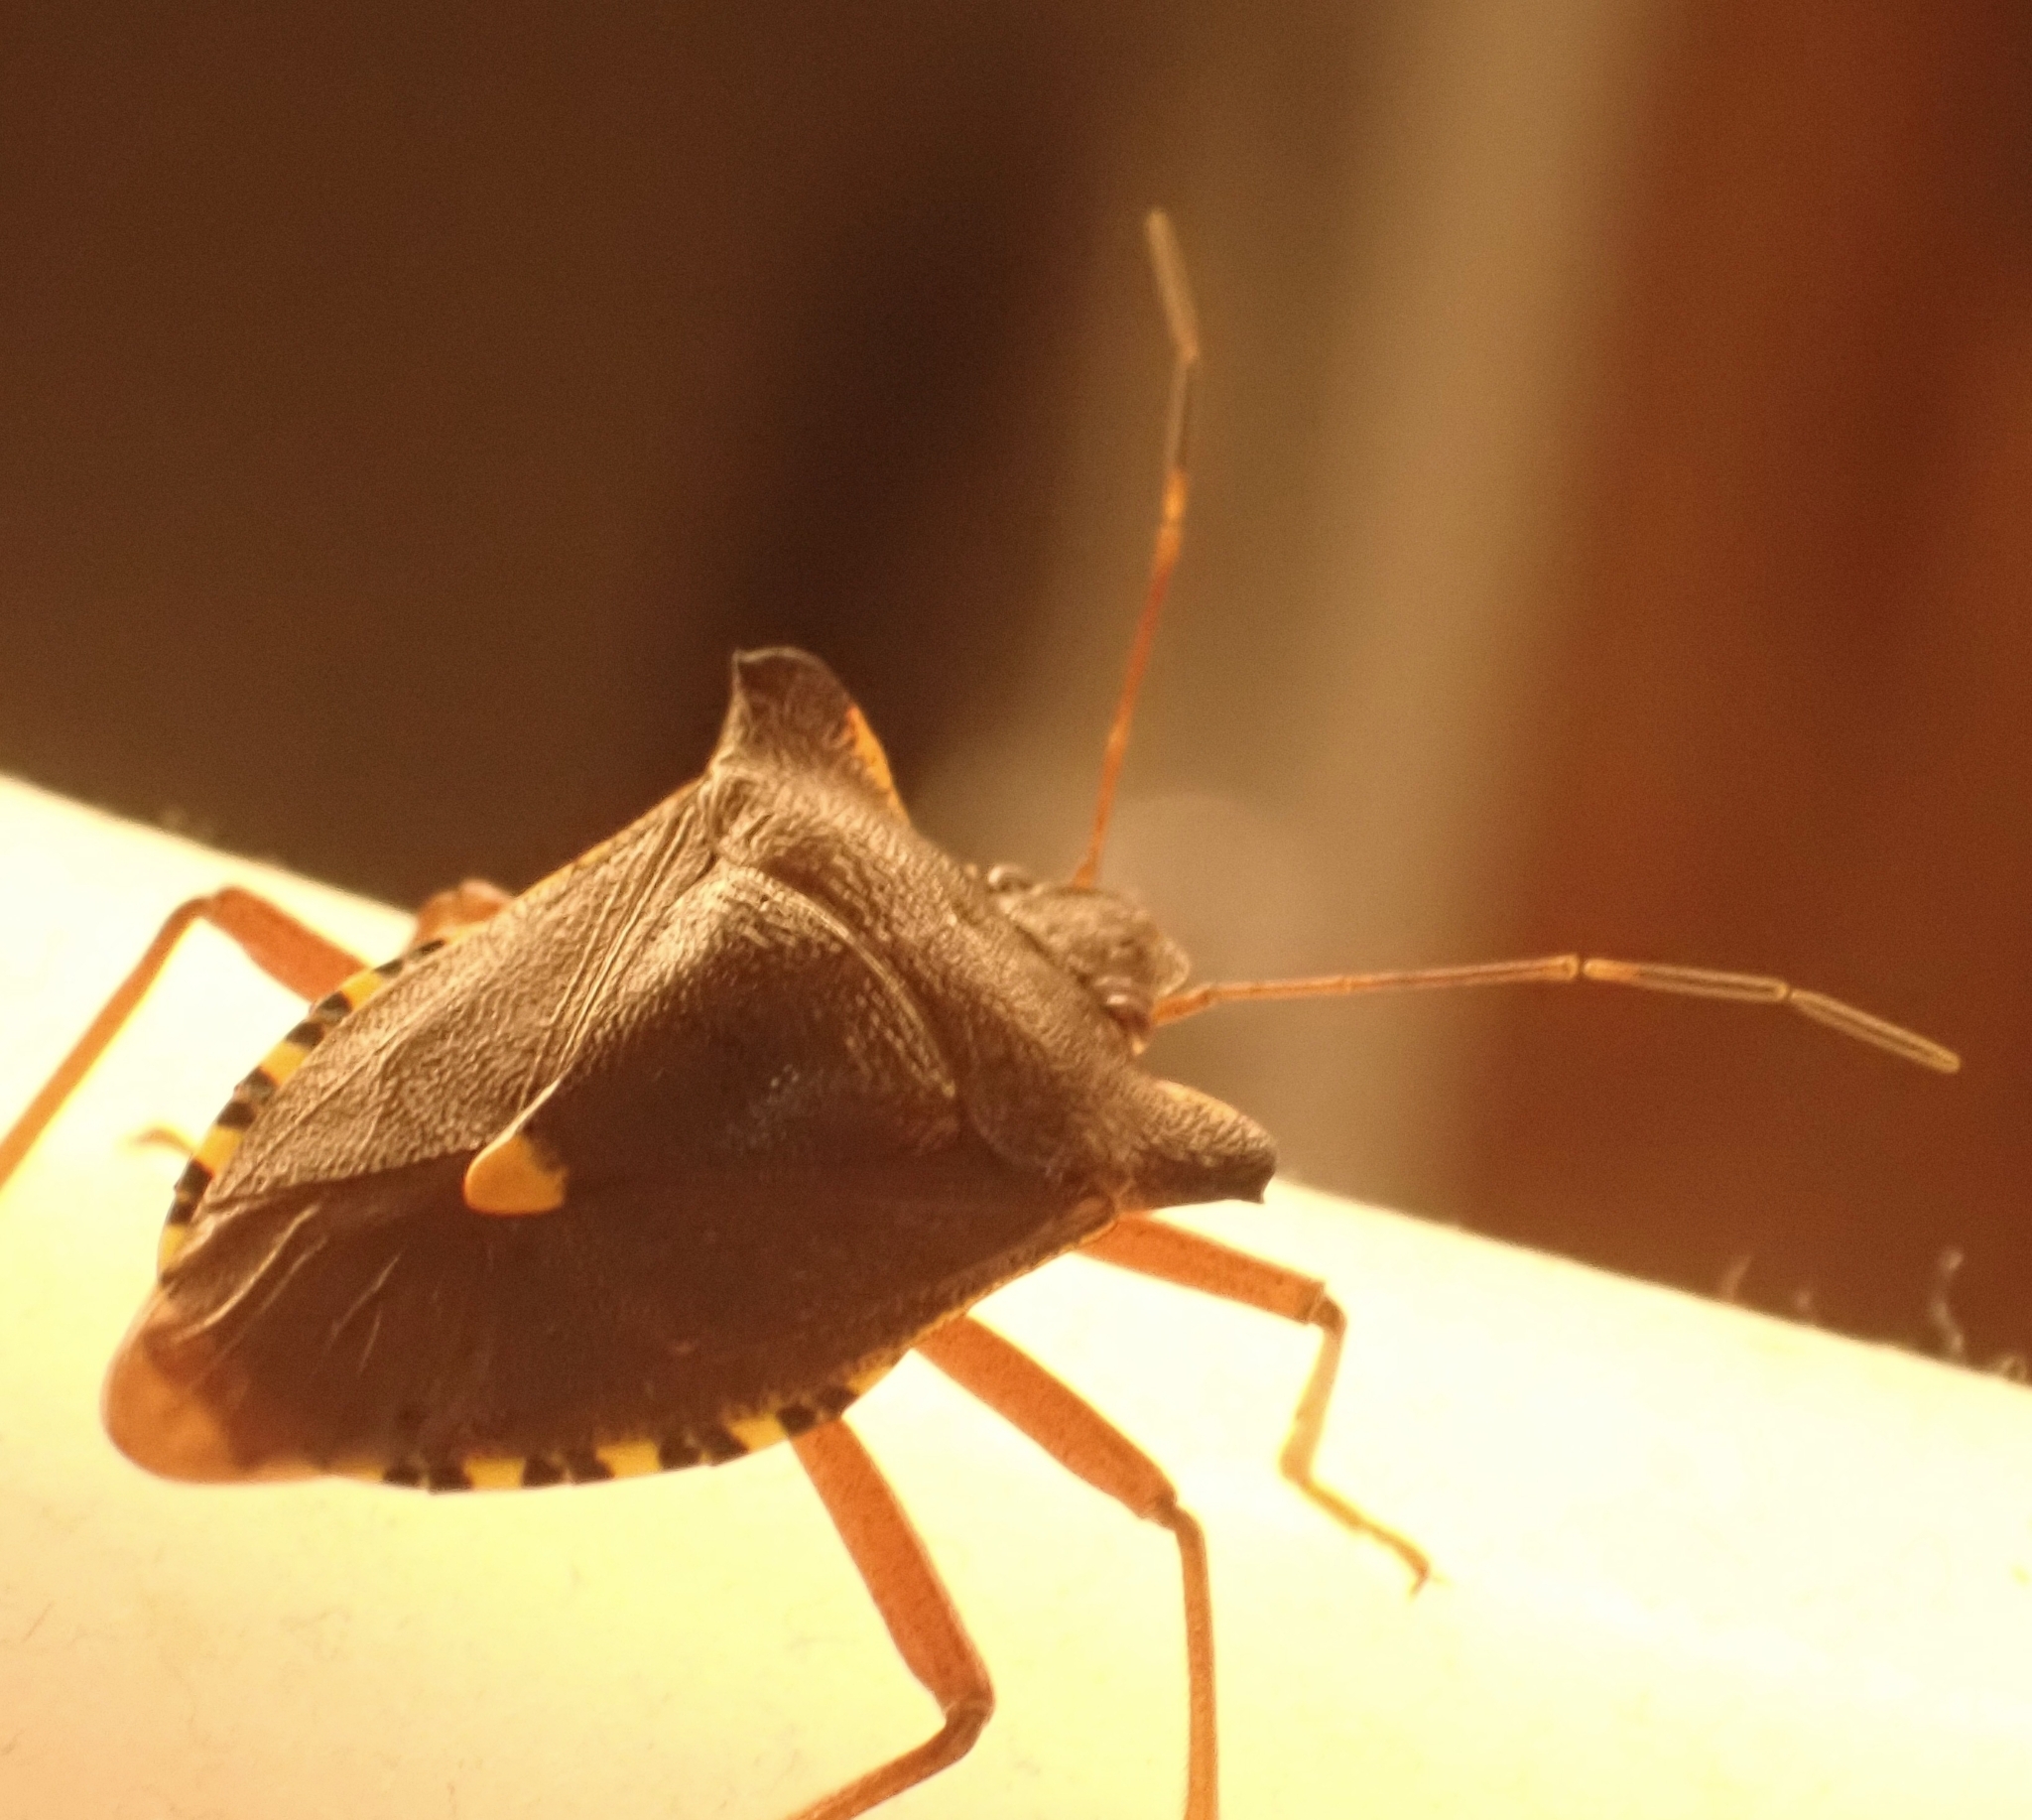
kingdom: Animalia
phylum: Arthropoda
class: Insecta
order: Hemiptera
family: Pentatomidae
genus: Pentatoma
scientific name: Pentatoma rufipes
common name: Forest bug
